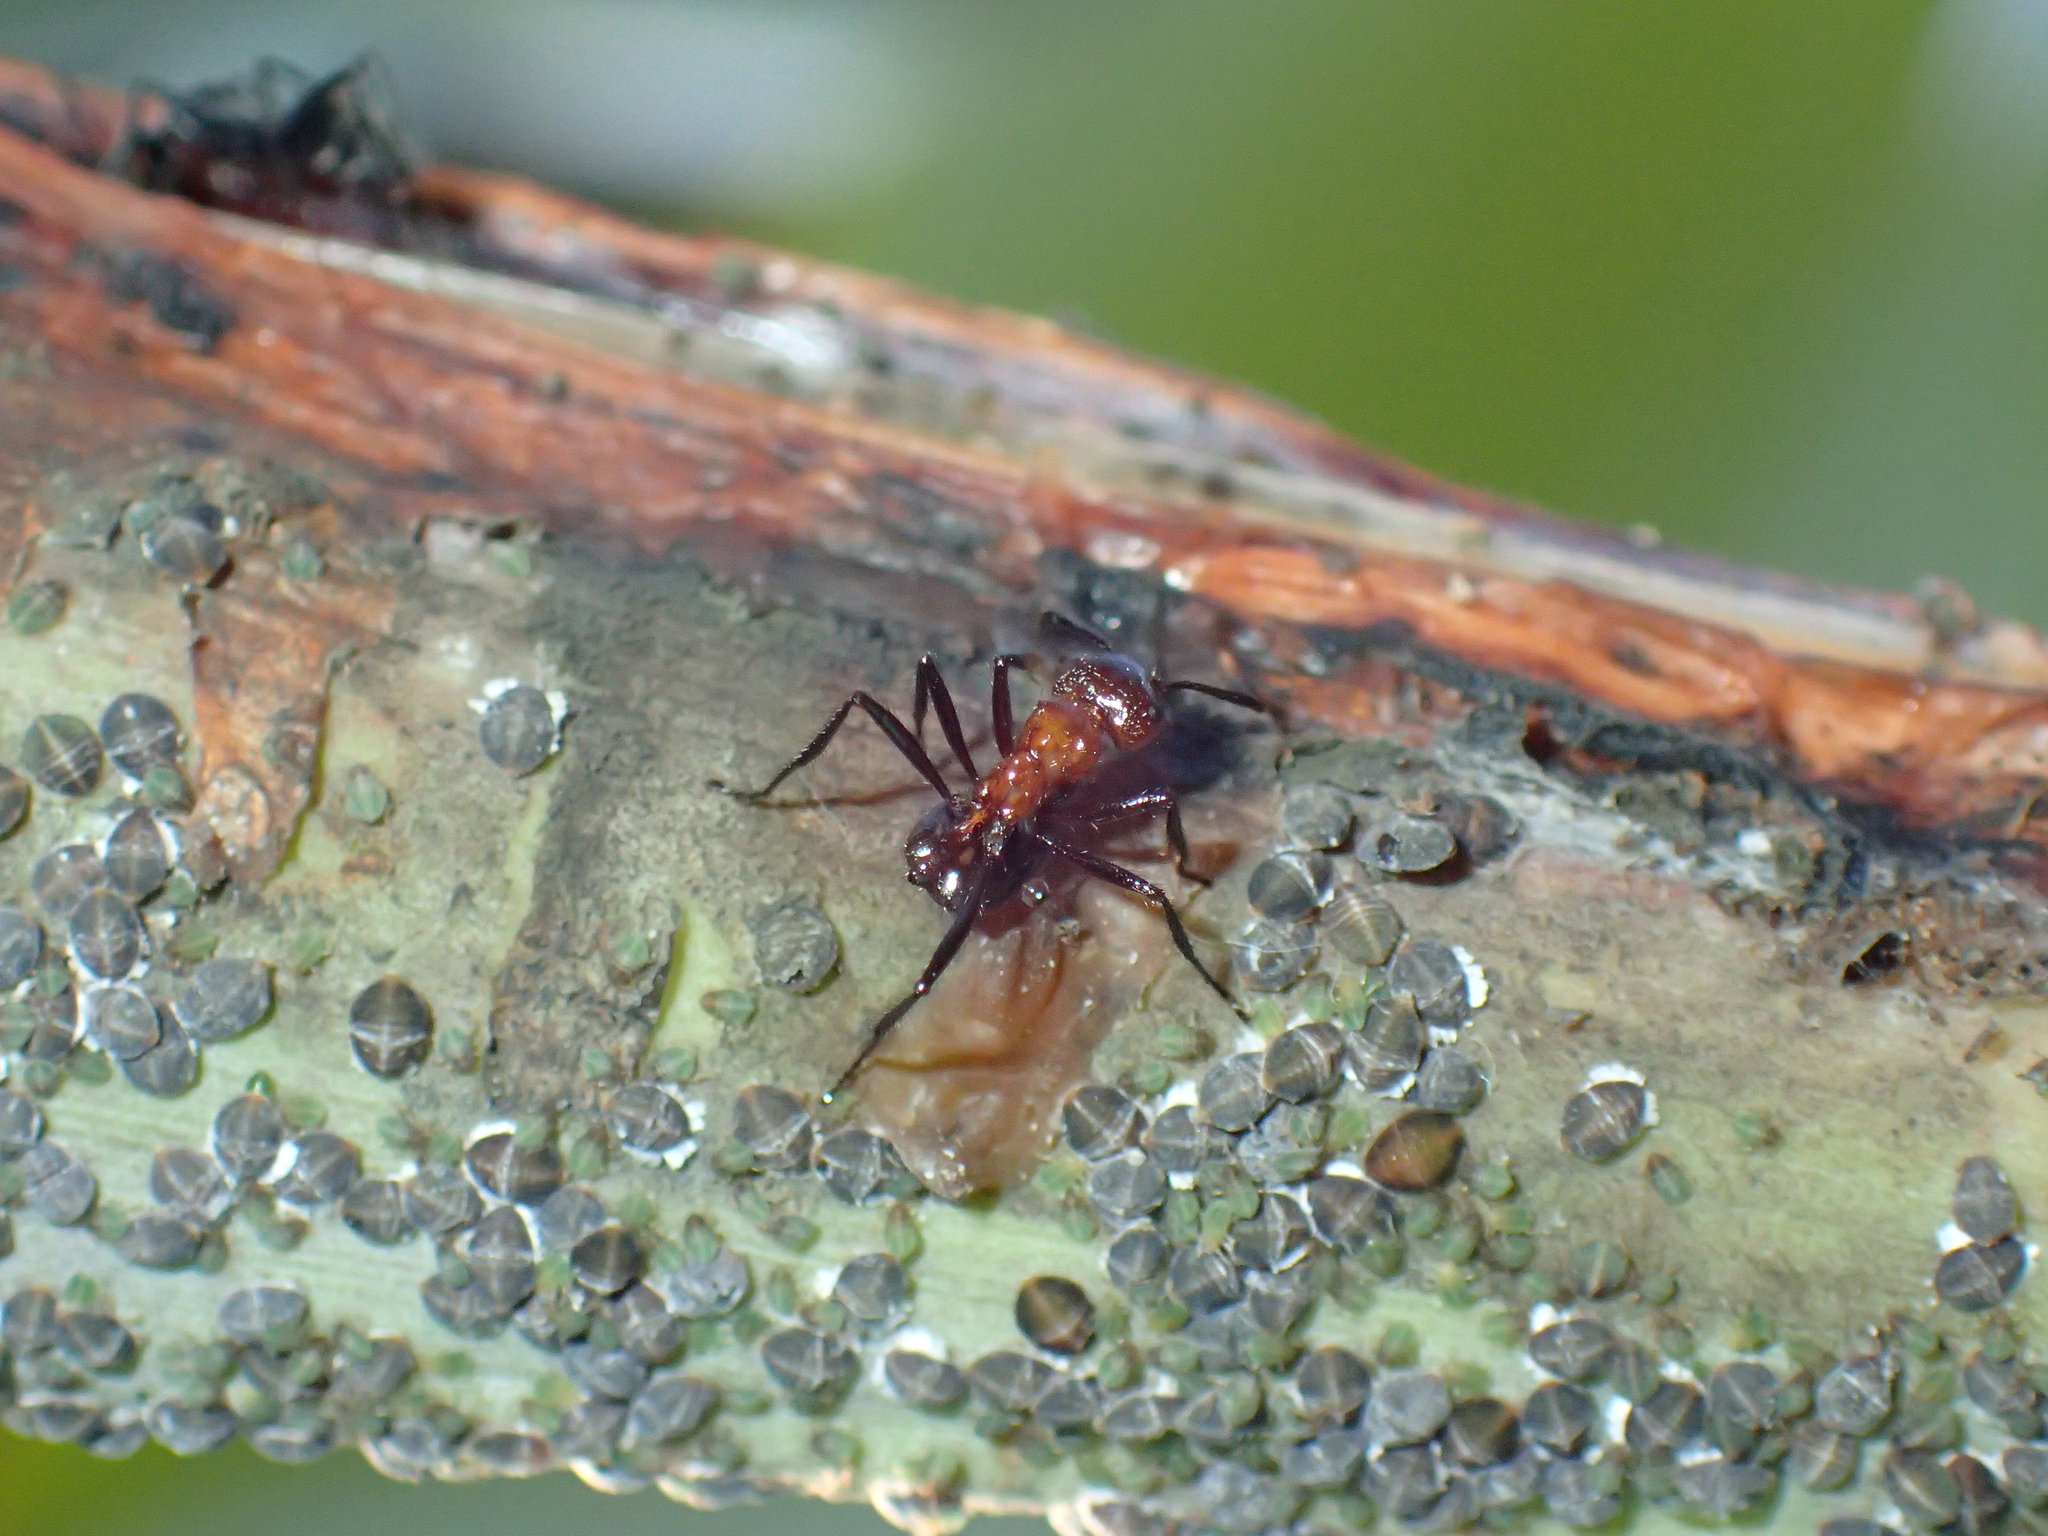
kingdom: Animalia
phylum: Arthropoda
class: Insecta
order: Hymenoptera
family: Formicidae
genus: Myrmicaria
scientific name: Myrmicaria natalensis
